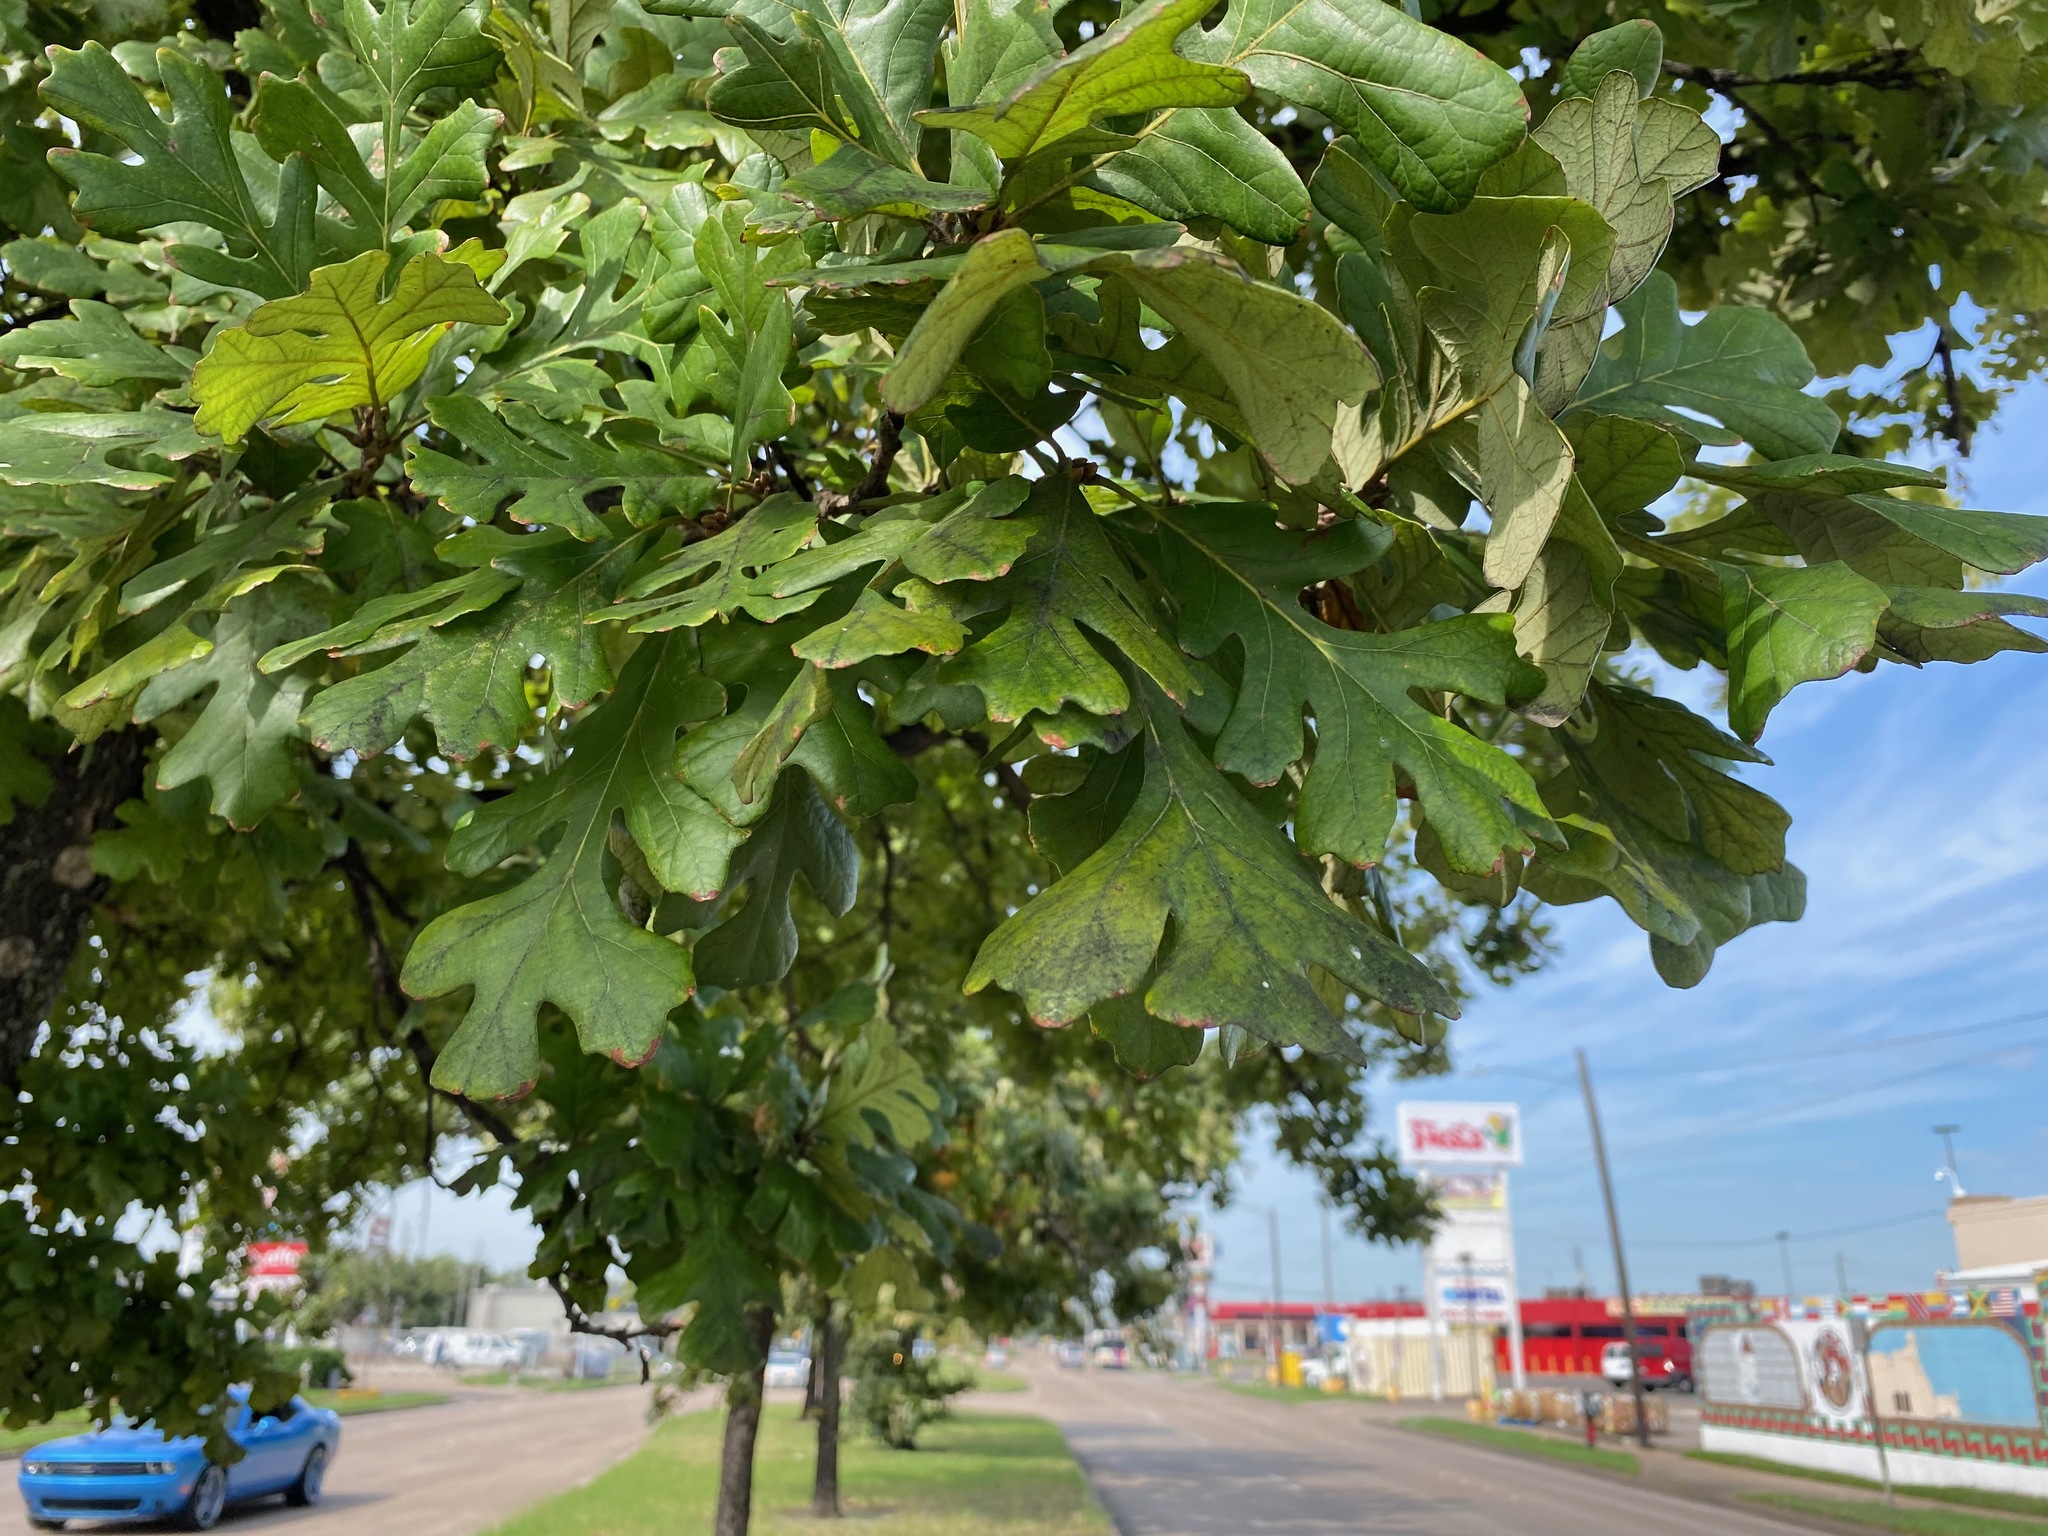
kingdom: Plantae
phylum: Tracheophyta
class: Magnoliopsida
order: Fagales
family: Fagaceae
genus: Quercus
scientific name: Quercus macrocarpa
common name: Bur oak
